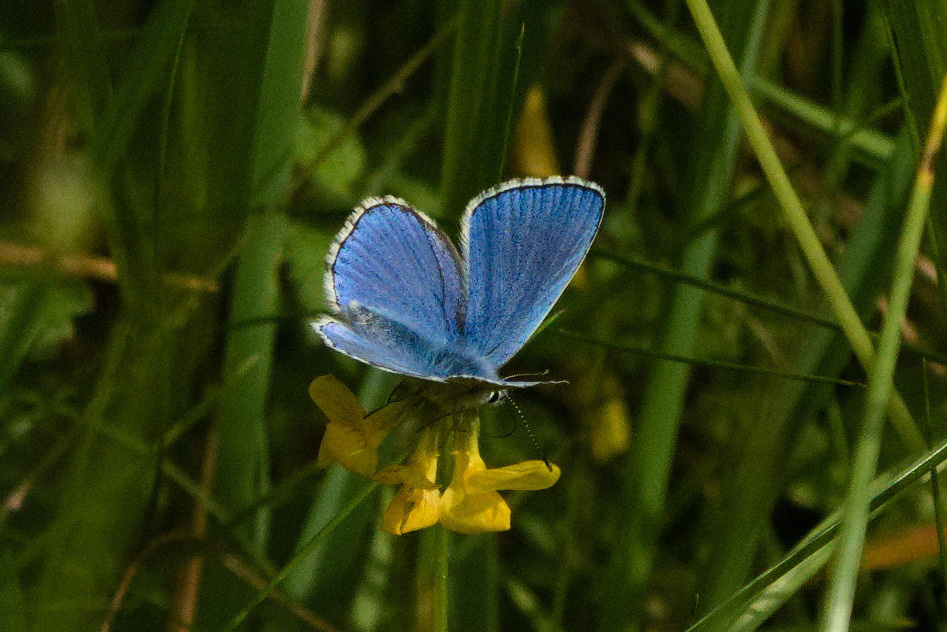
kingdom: Animalia
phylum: Arthropoda
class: Insecta
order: Lepidoptera
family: Lycaenidae
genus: Lysandra
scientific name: Lysandra bellargus
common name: Adonis blue
